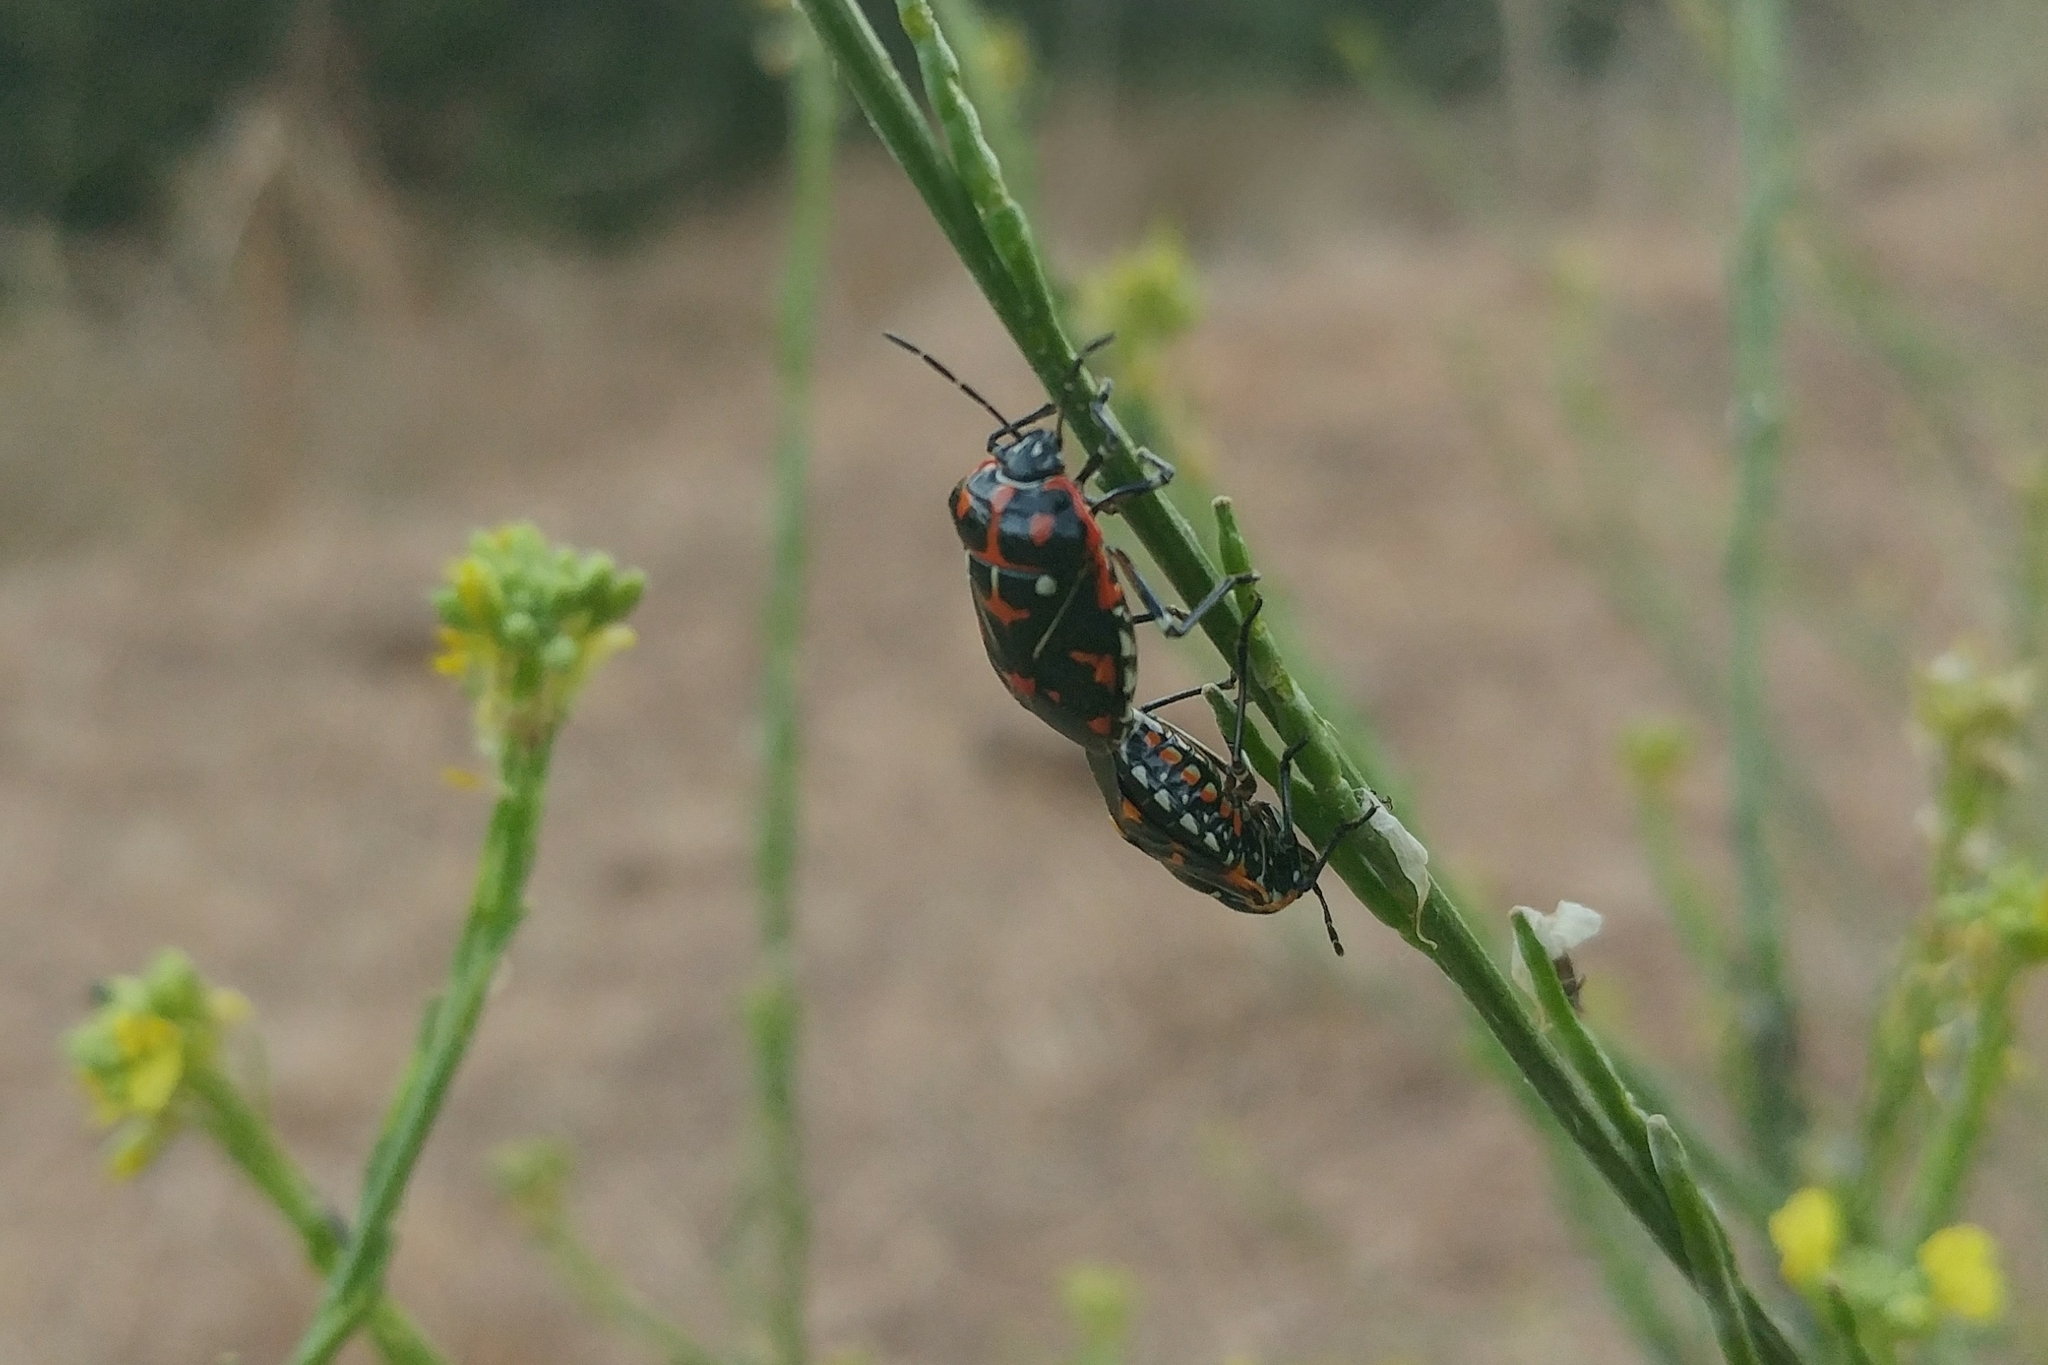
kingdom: Animalia
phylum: Arthropoda
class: Insecta
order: Hemiptera
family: Pentatomidae
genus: Murgantia
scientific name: Murgantia histrionica
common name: Harlequin bug
